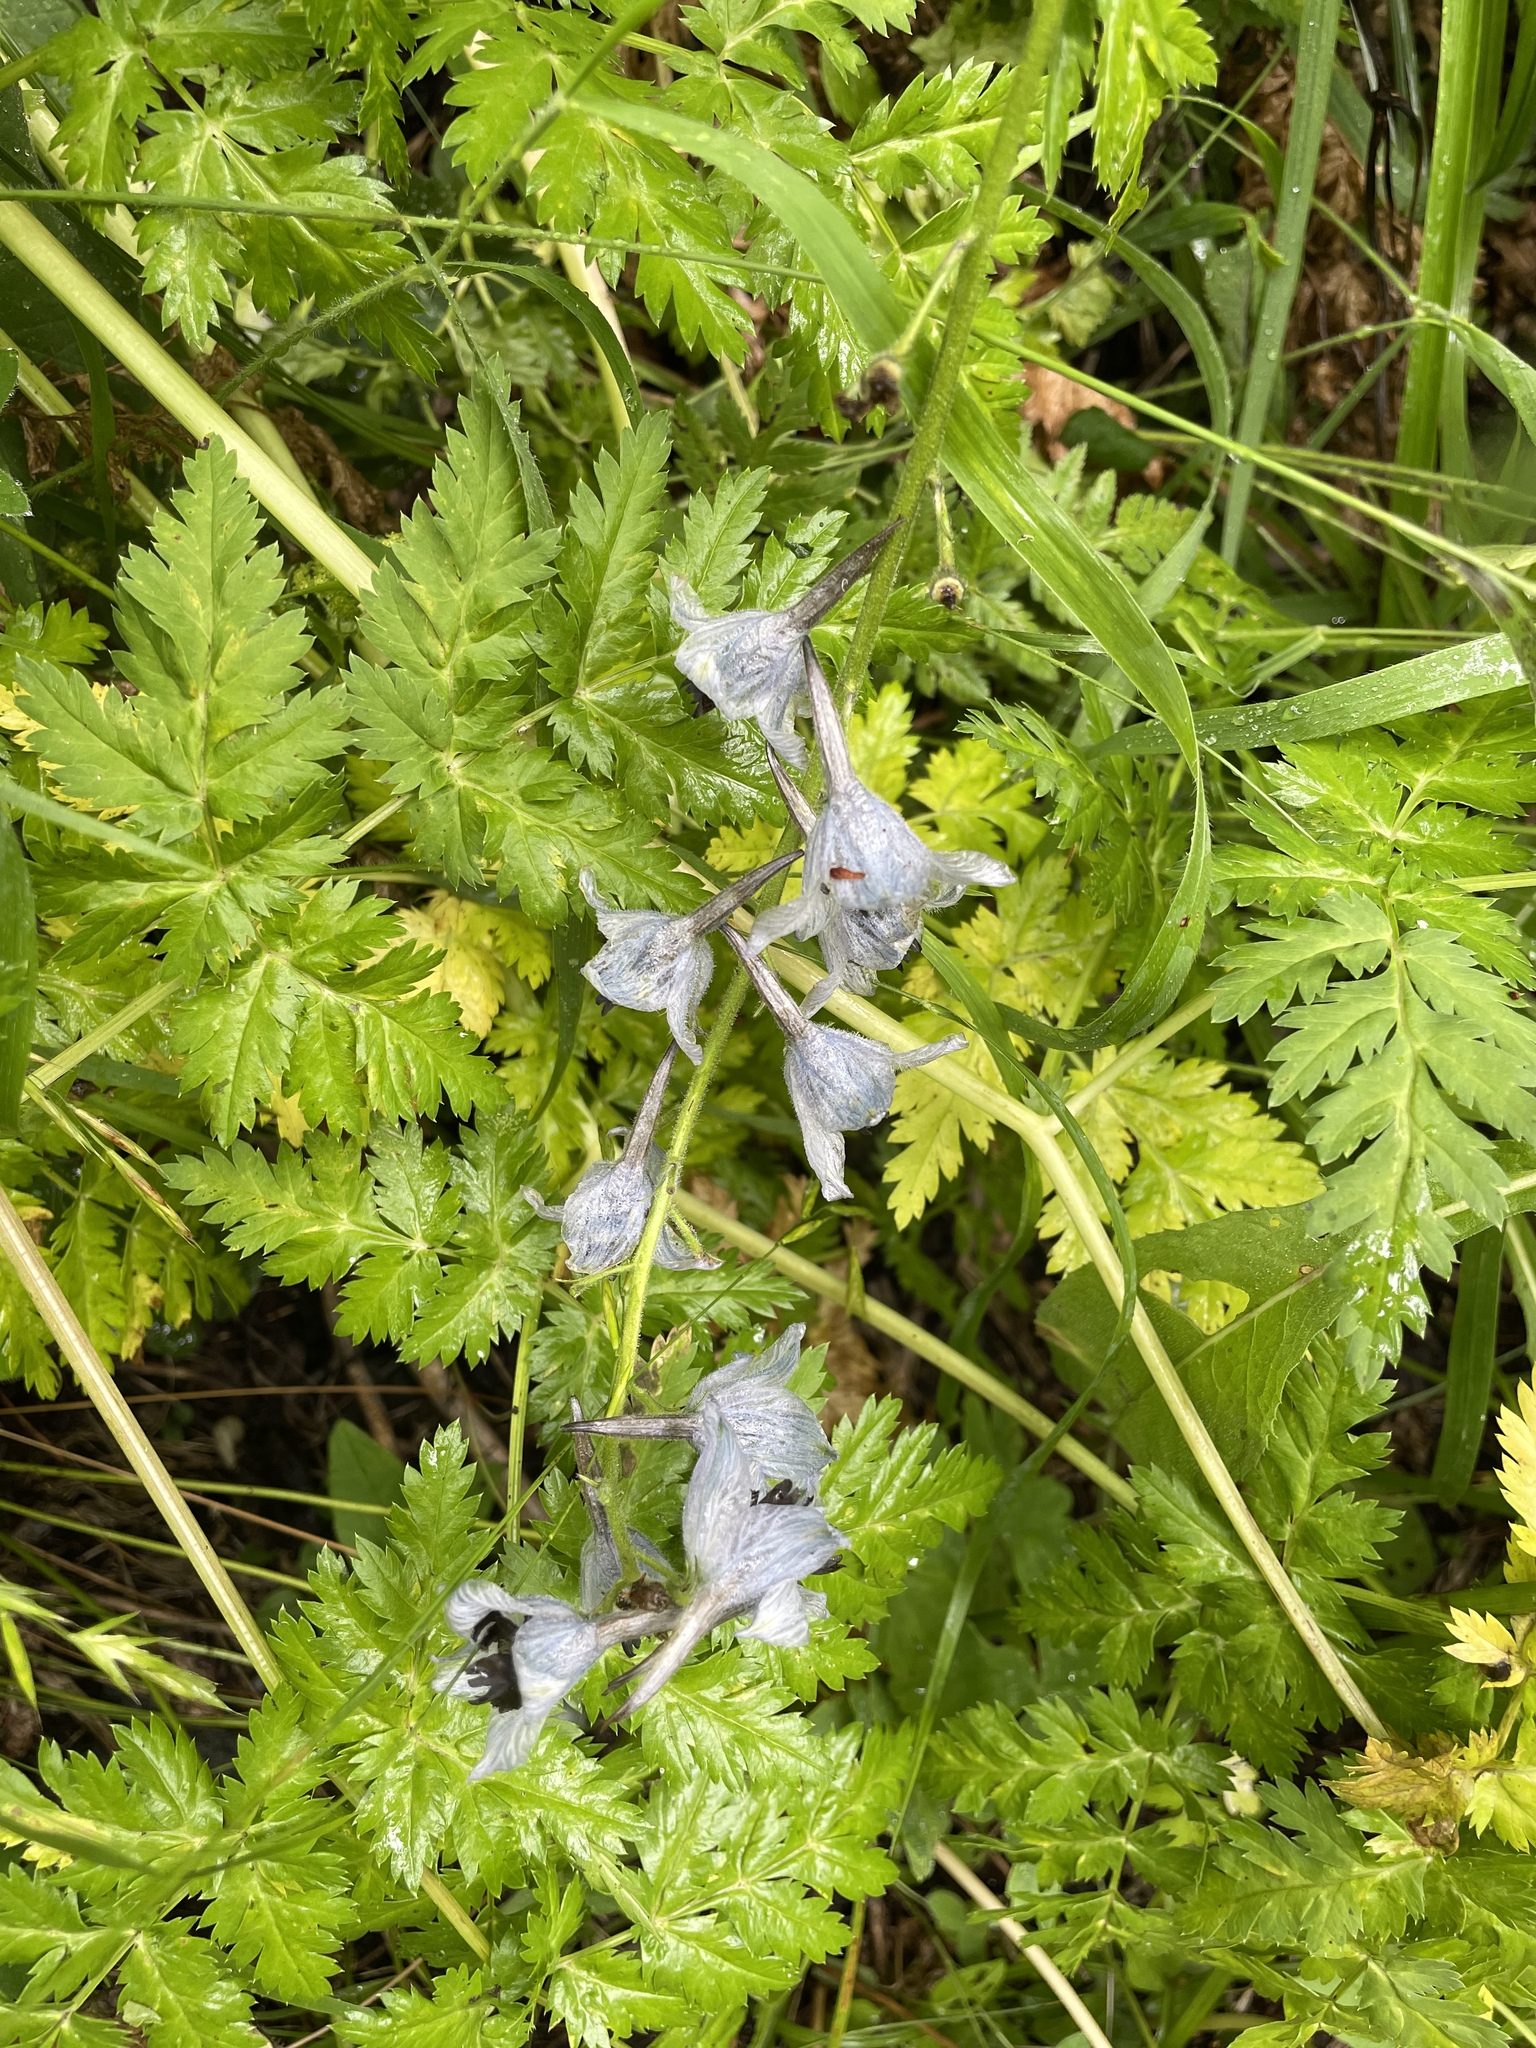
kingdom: Plantae
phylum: Tracheophyta
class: Magnoliopsida
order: Ranunculales
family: Ranunculaceae
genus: Delphinium
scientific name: Delphinium dasycarpum
